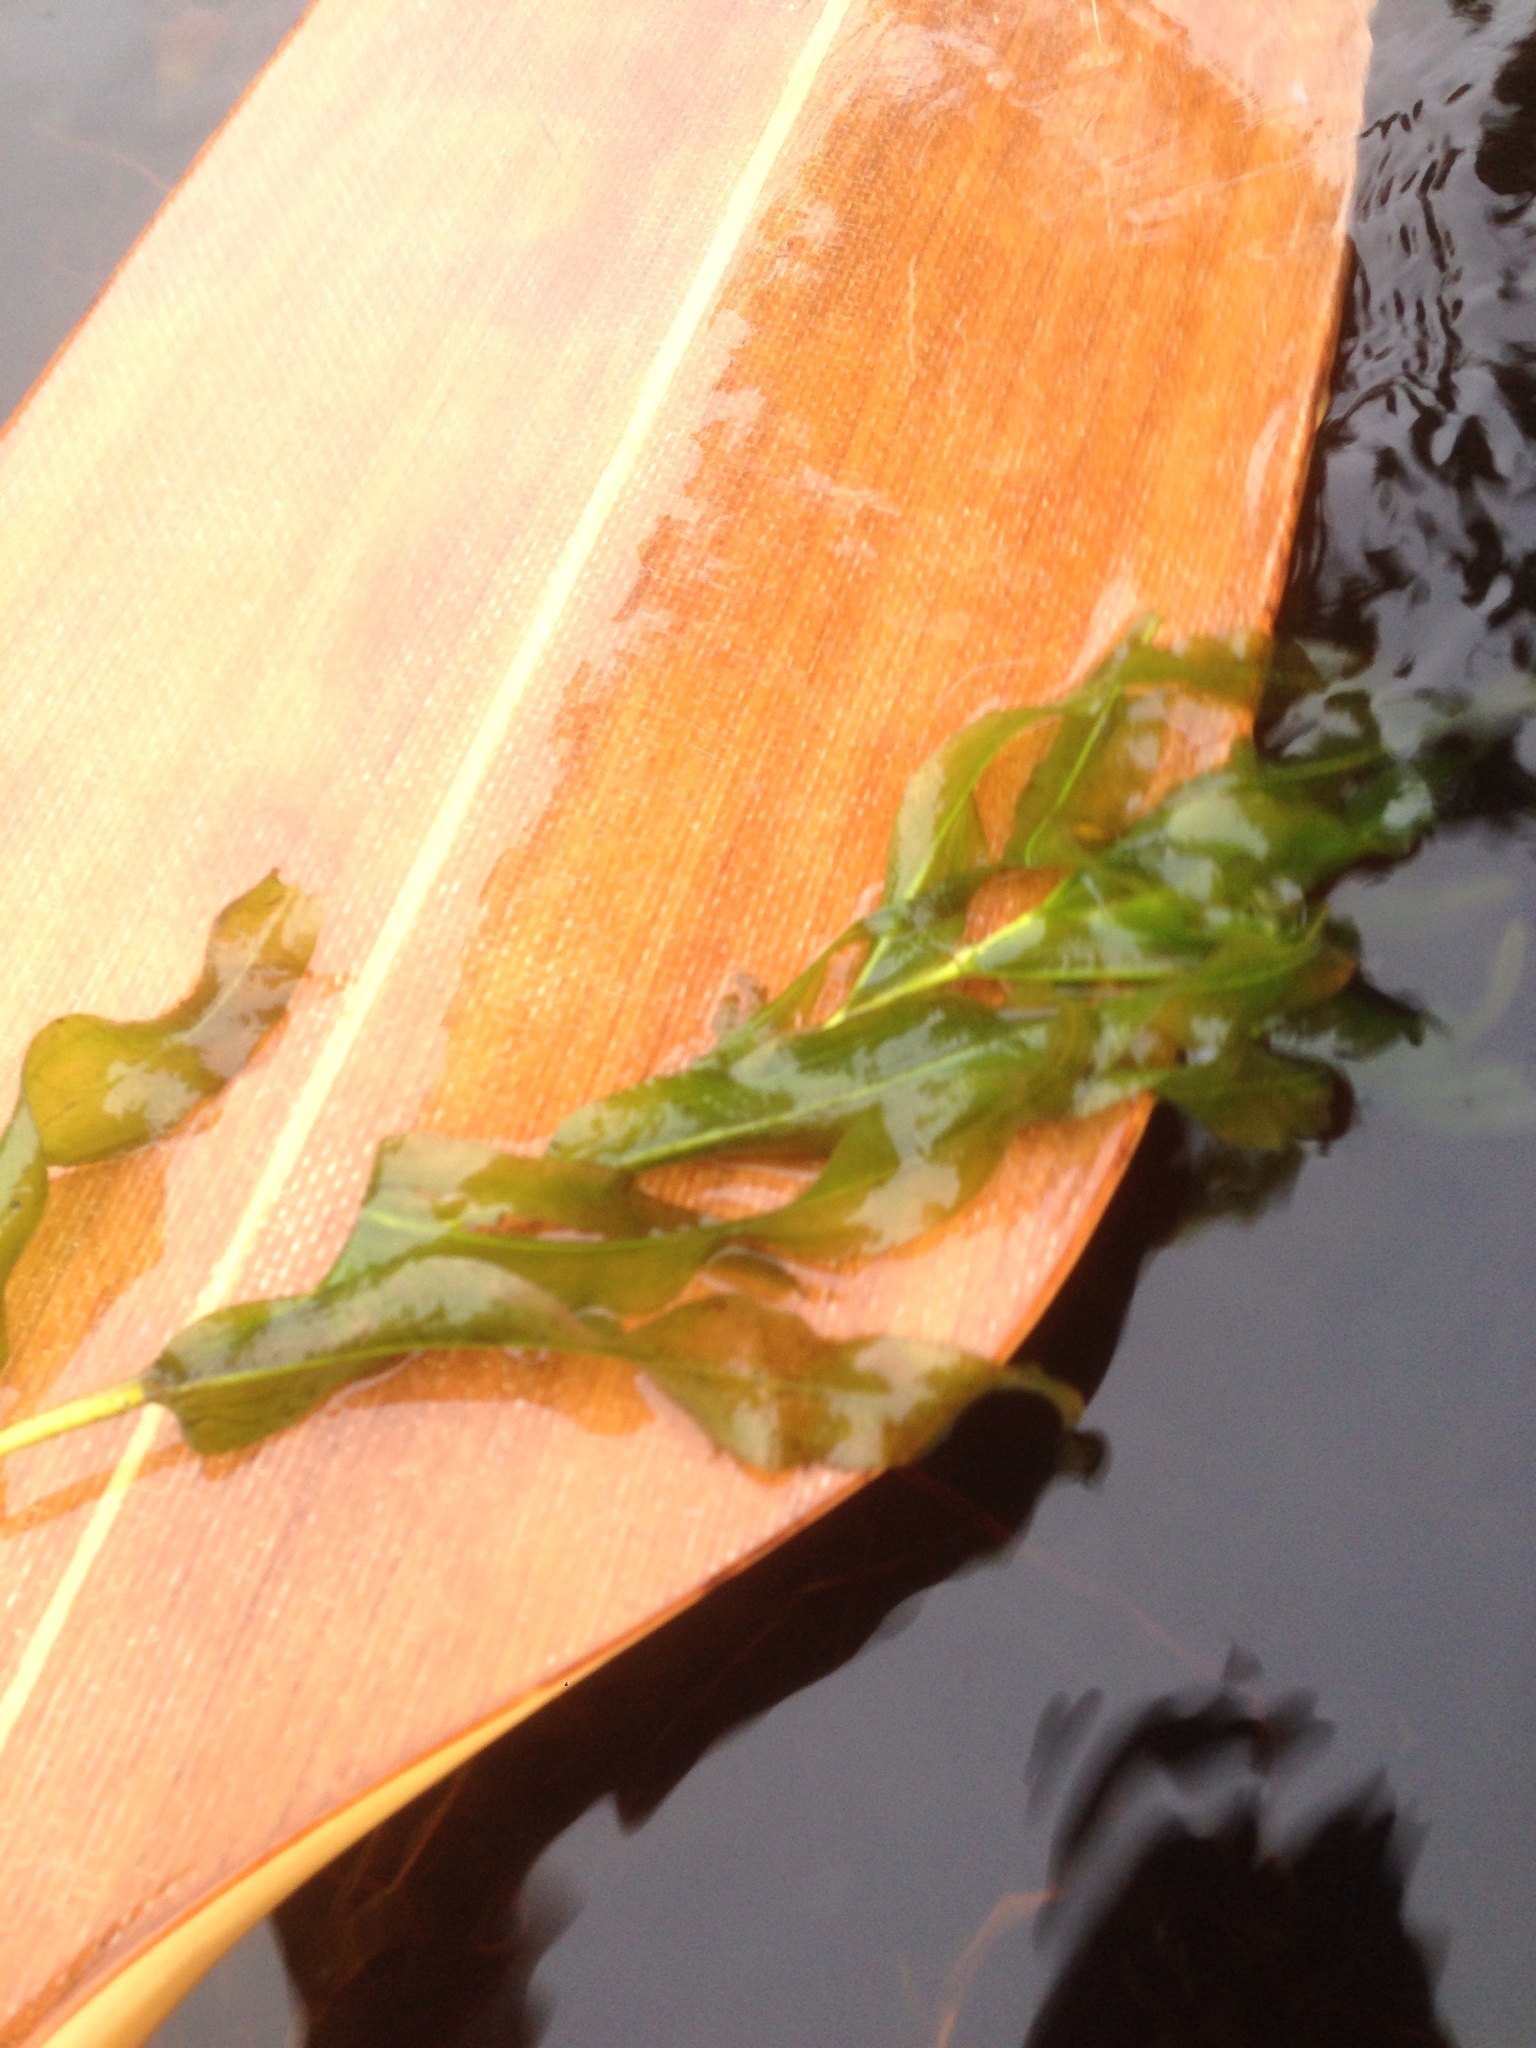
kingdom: Plantae
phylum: Tracheophyta
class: Liliopsida
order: Alismatales
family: Potamogetonaceae
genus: Potamogeton
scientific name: Potamogeton praelongus
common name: Long-stalked pondweed
